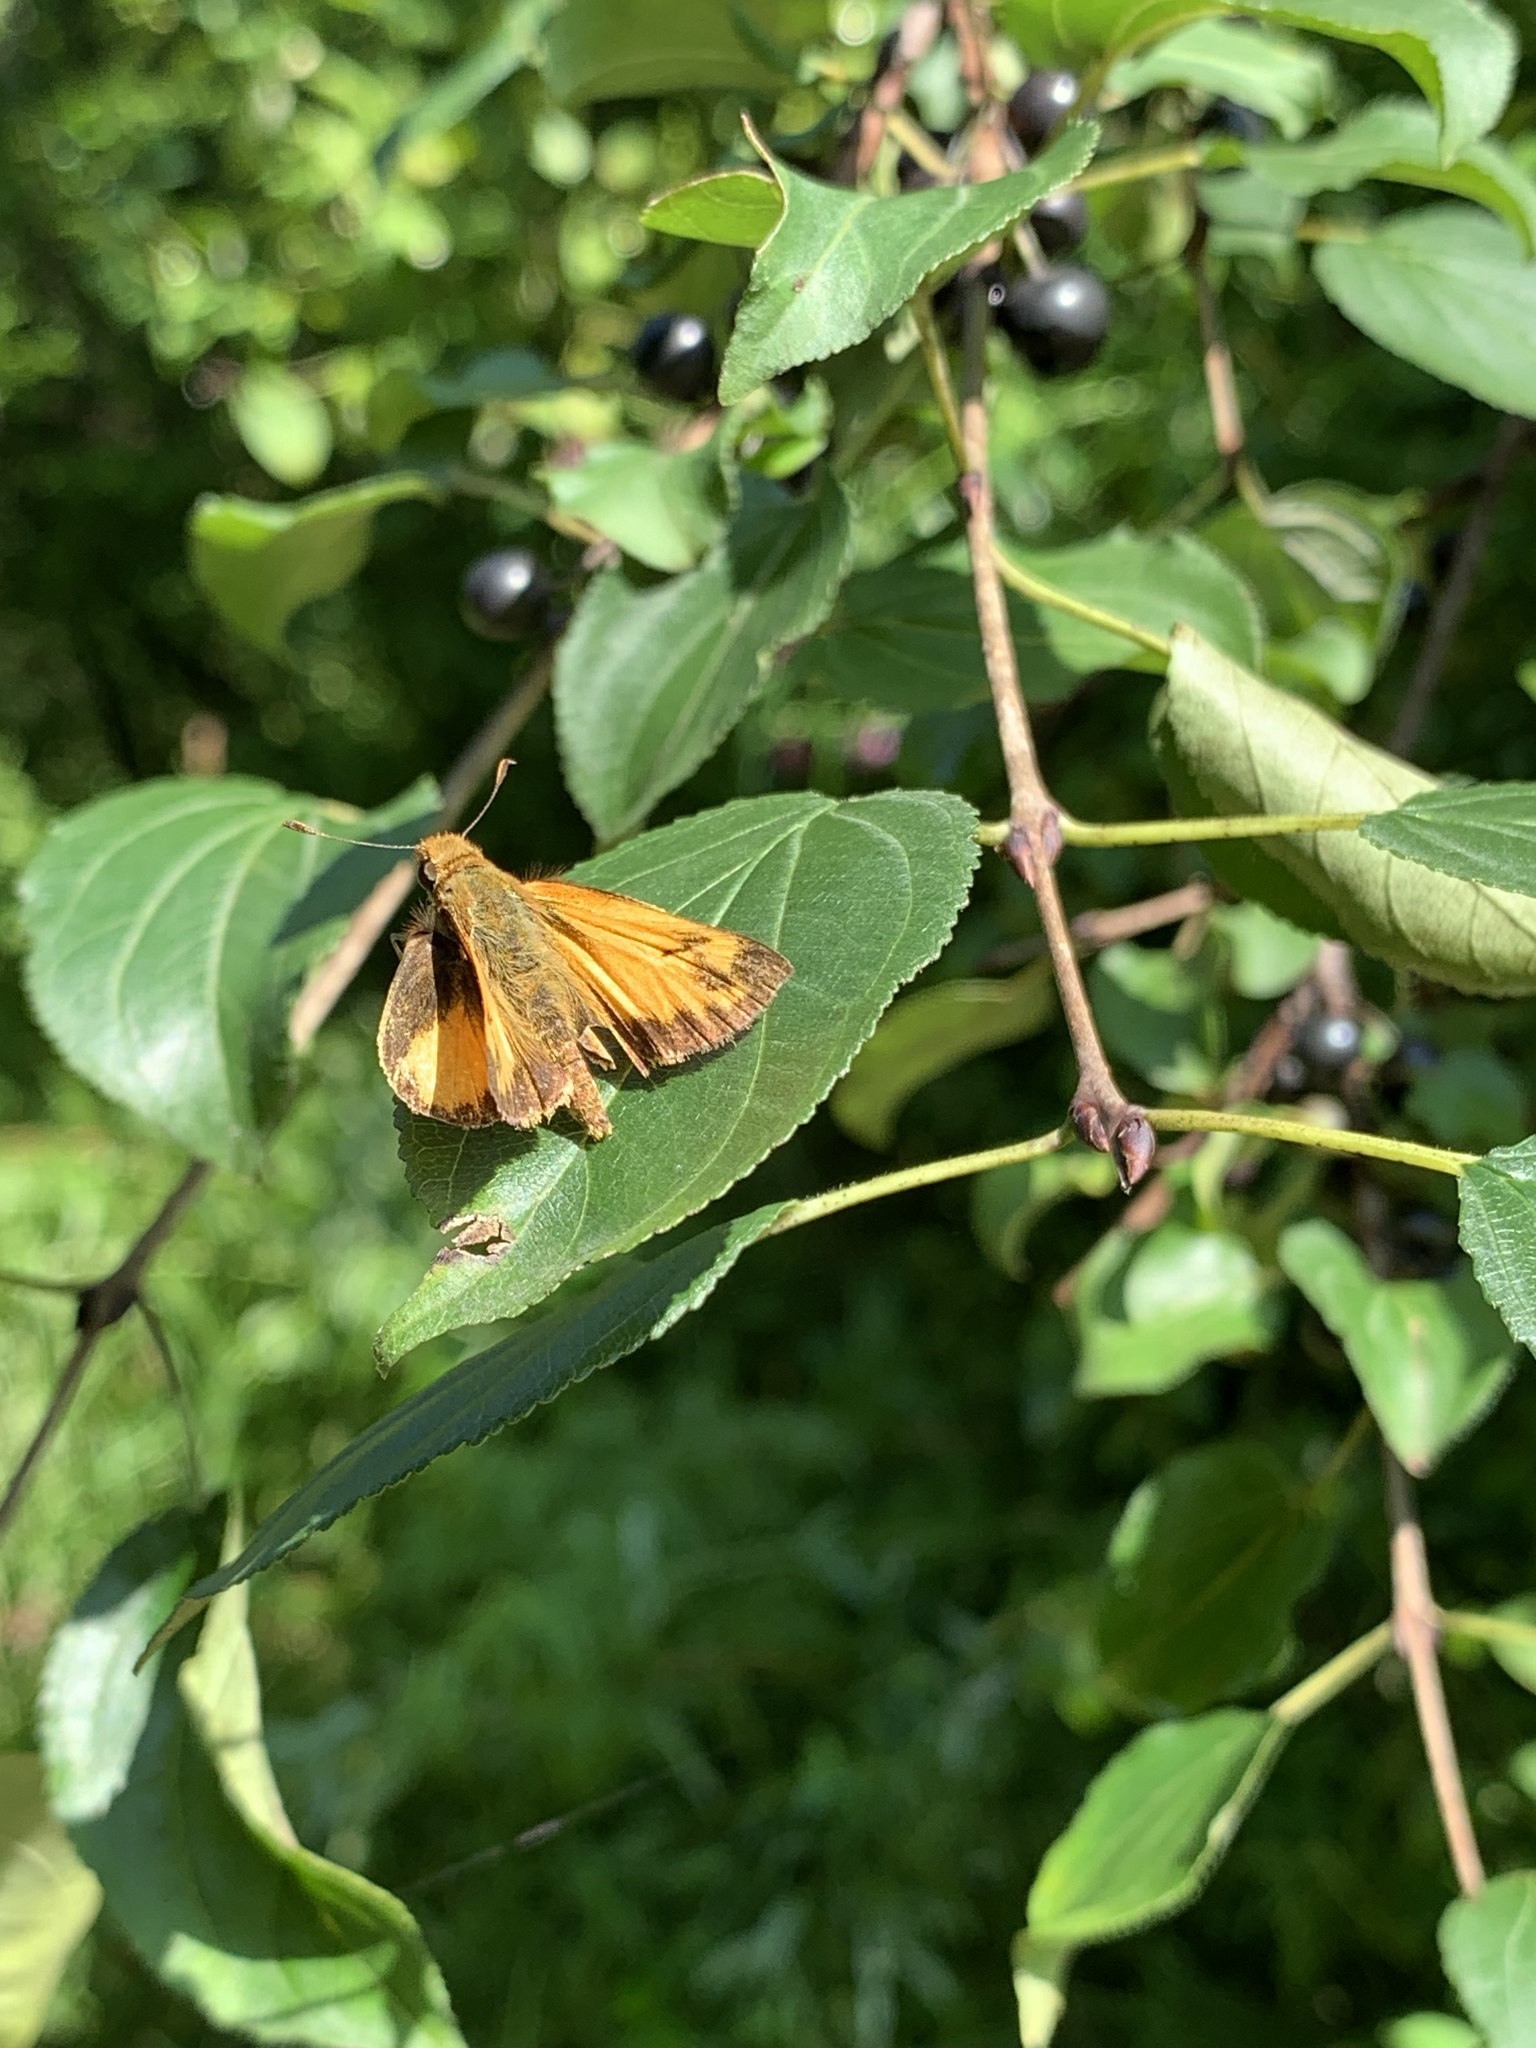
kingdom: Animalia
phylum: Arthropoda
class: Insecta
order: Lepidoptera
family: Hesperiidae
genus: Lon
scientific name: Lon zabulon
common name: Zabulon skipper
